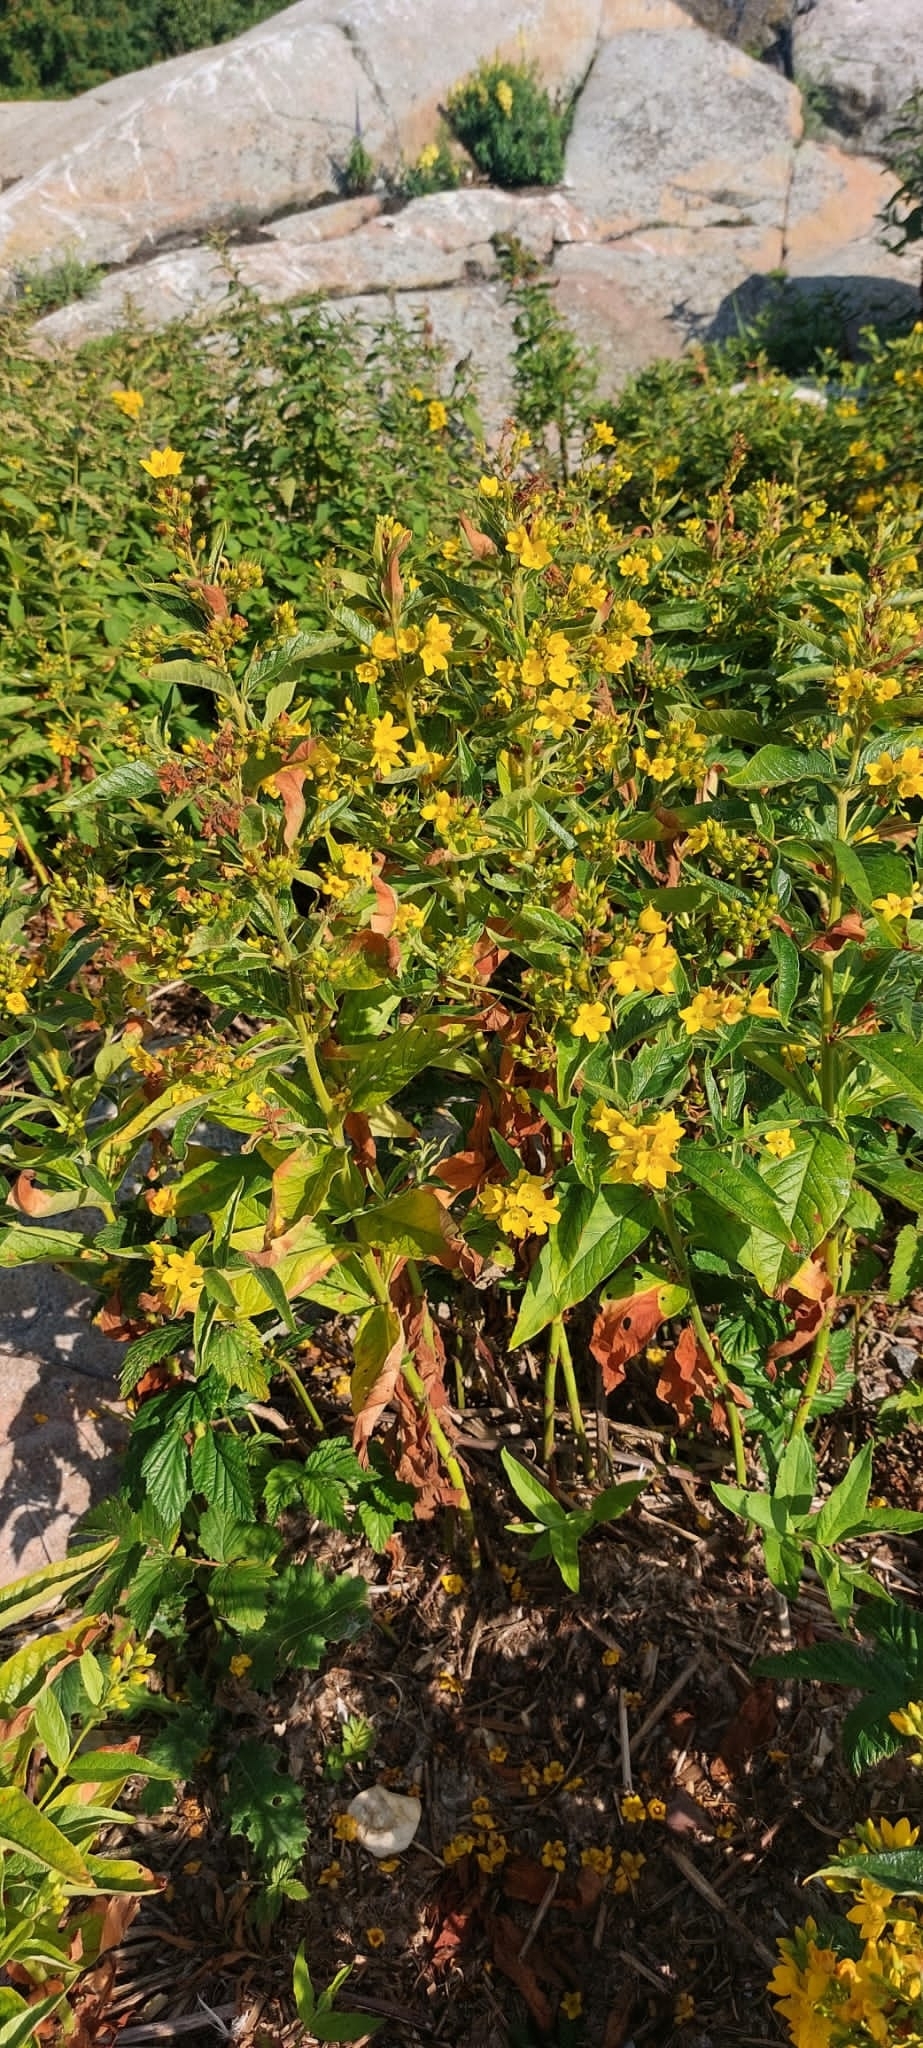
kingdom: Plantae
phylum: Tracheophyta
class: Magnoliopsida
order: Ericales
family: Primulaceae
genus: Lysimachia
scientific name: Lysimachia vulgaris
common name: Yellow loosestrife
